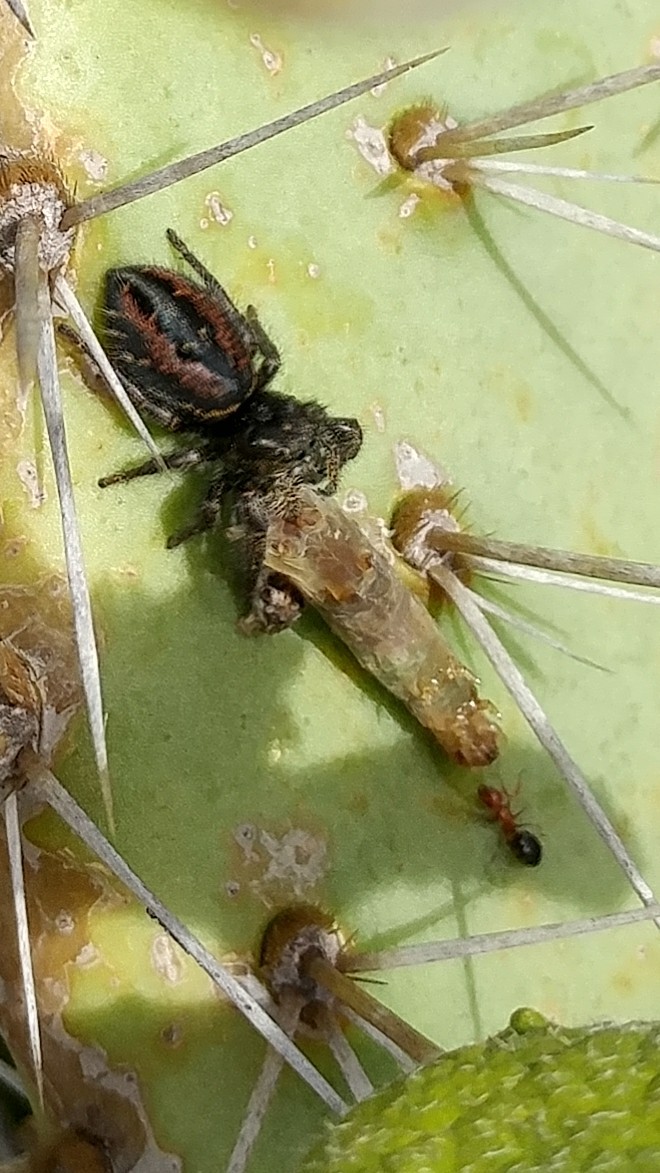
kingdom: Animalia
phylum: Arthropoda
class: Insecta
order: Hymenoptera
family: Formicidae
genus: Camponotus
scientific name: Camponotus bakeri
